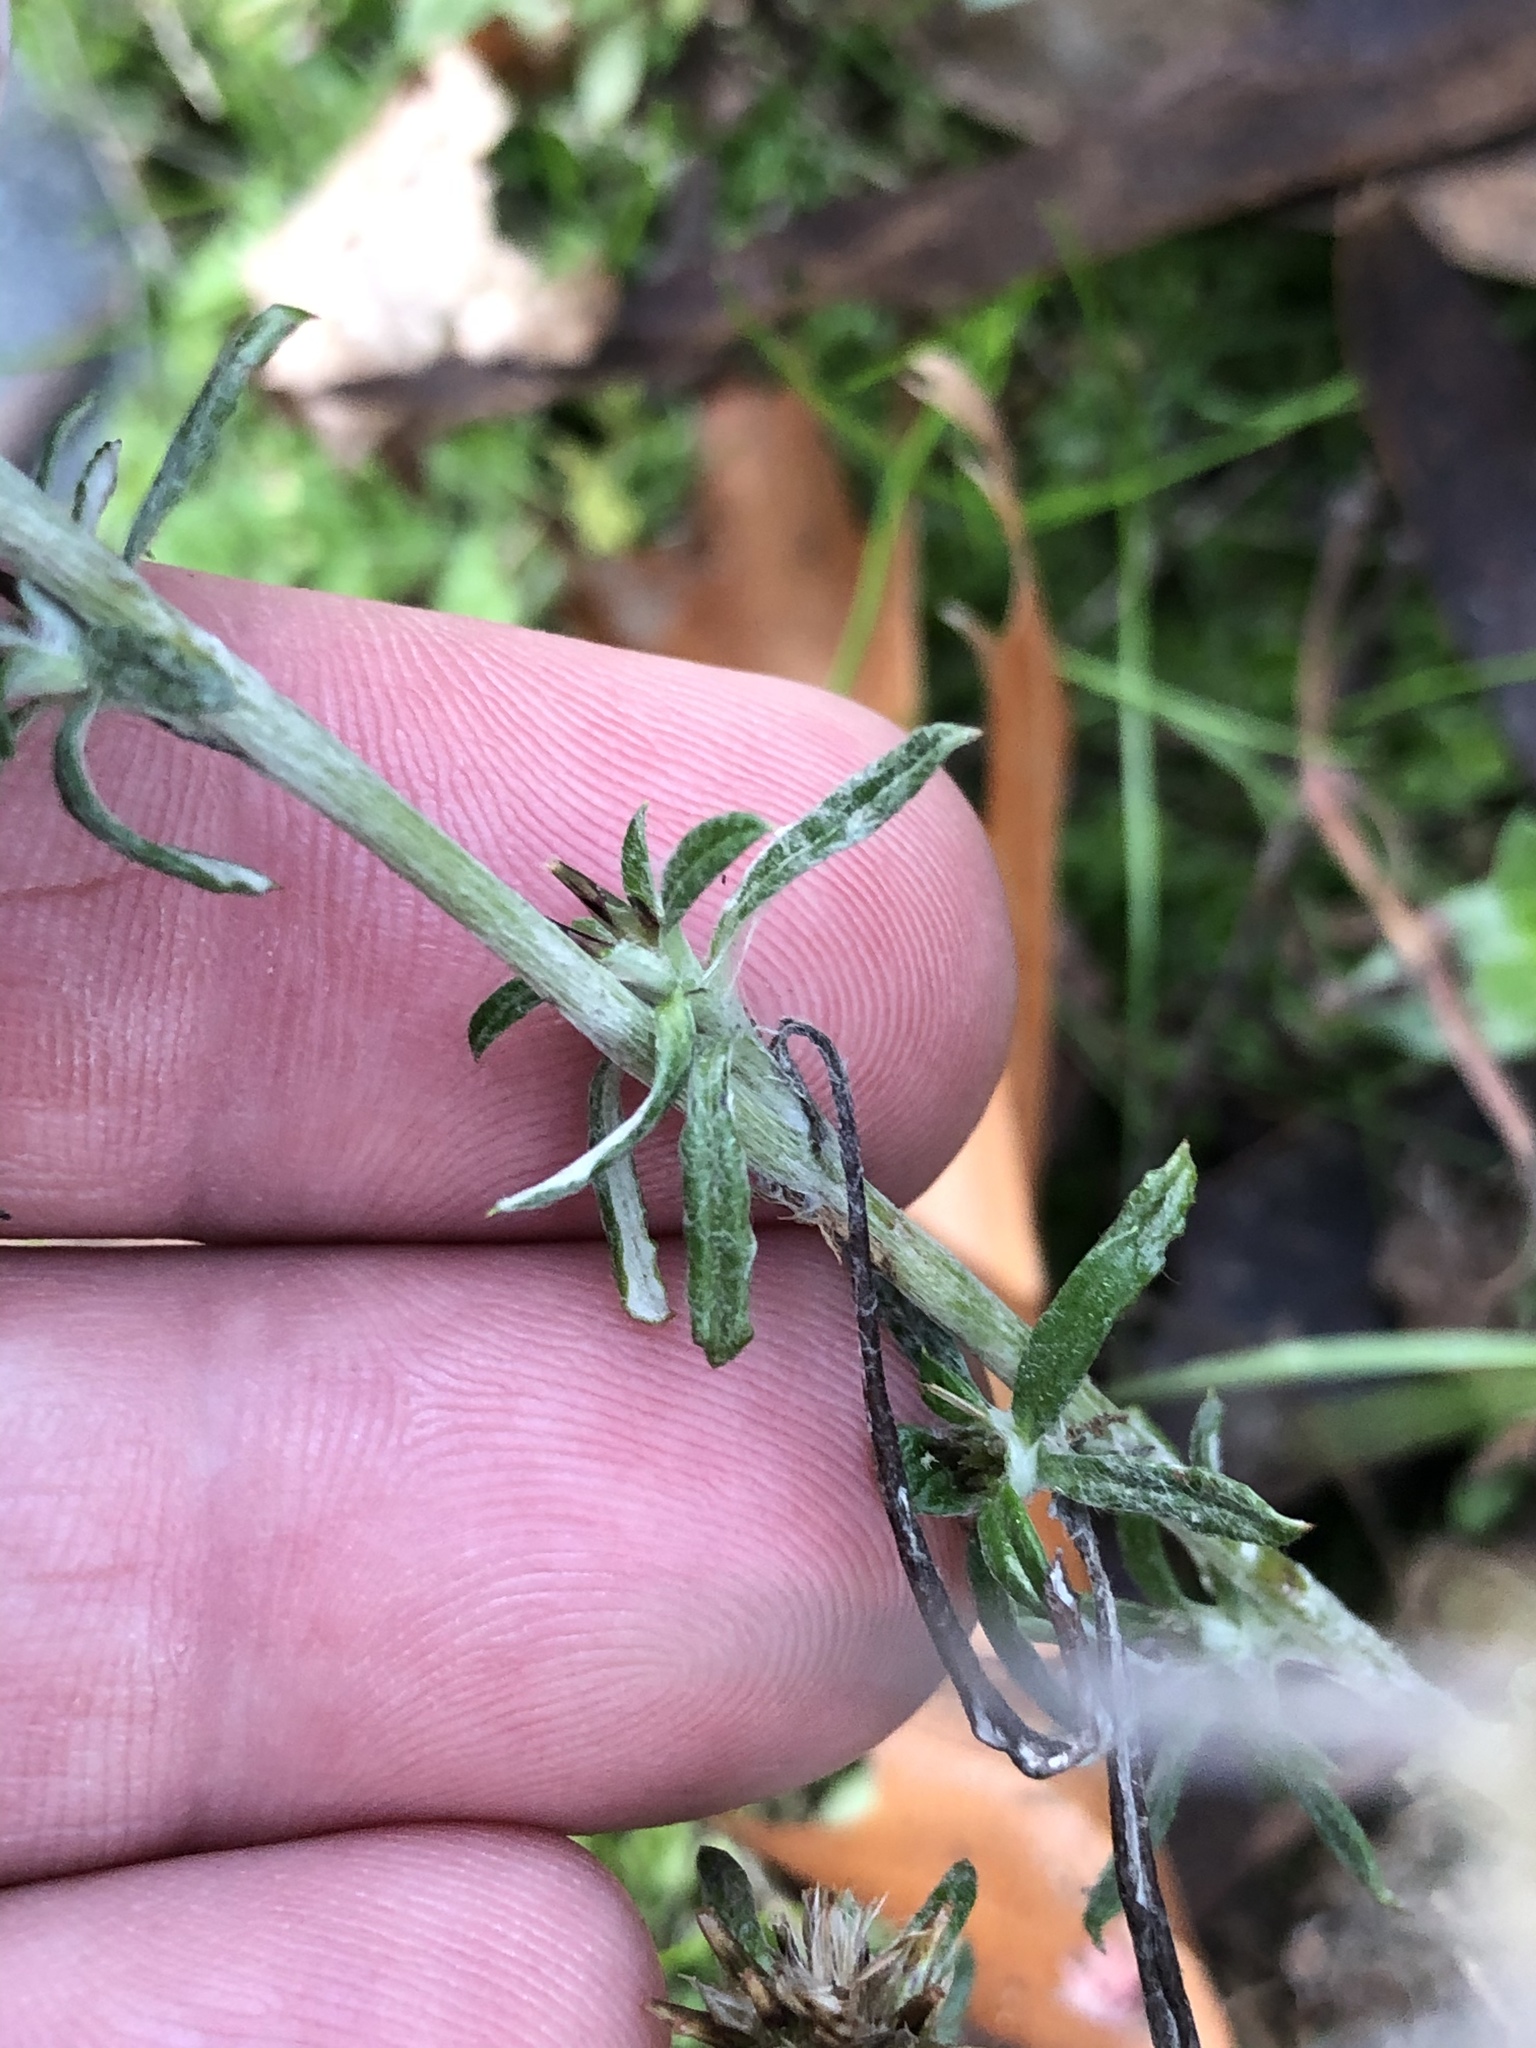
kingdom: Plantae
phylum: Tracheophyta
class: Magnoliopsida
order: Asterales
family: Asteraceae
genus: Euchiton
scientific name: Euchiton sphaericus
